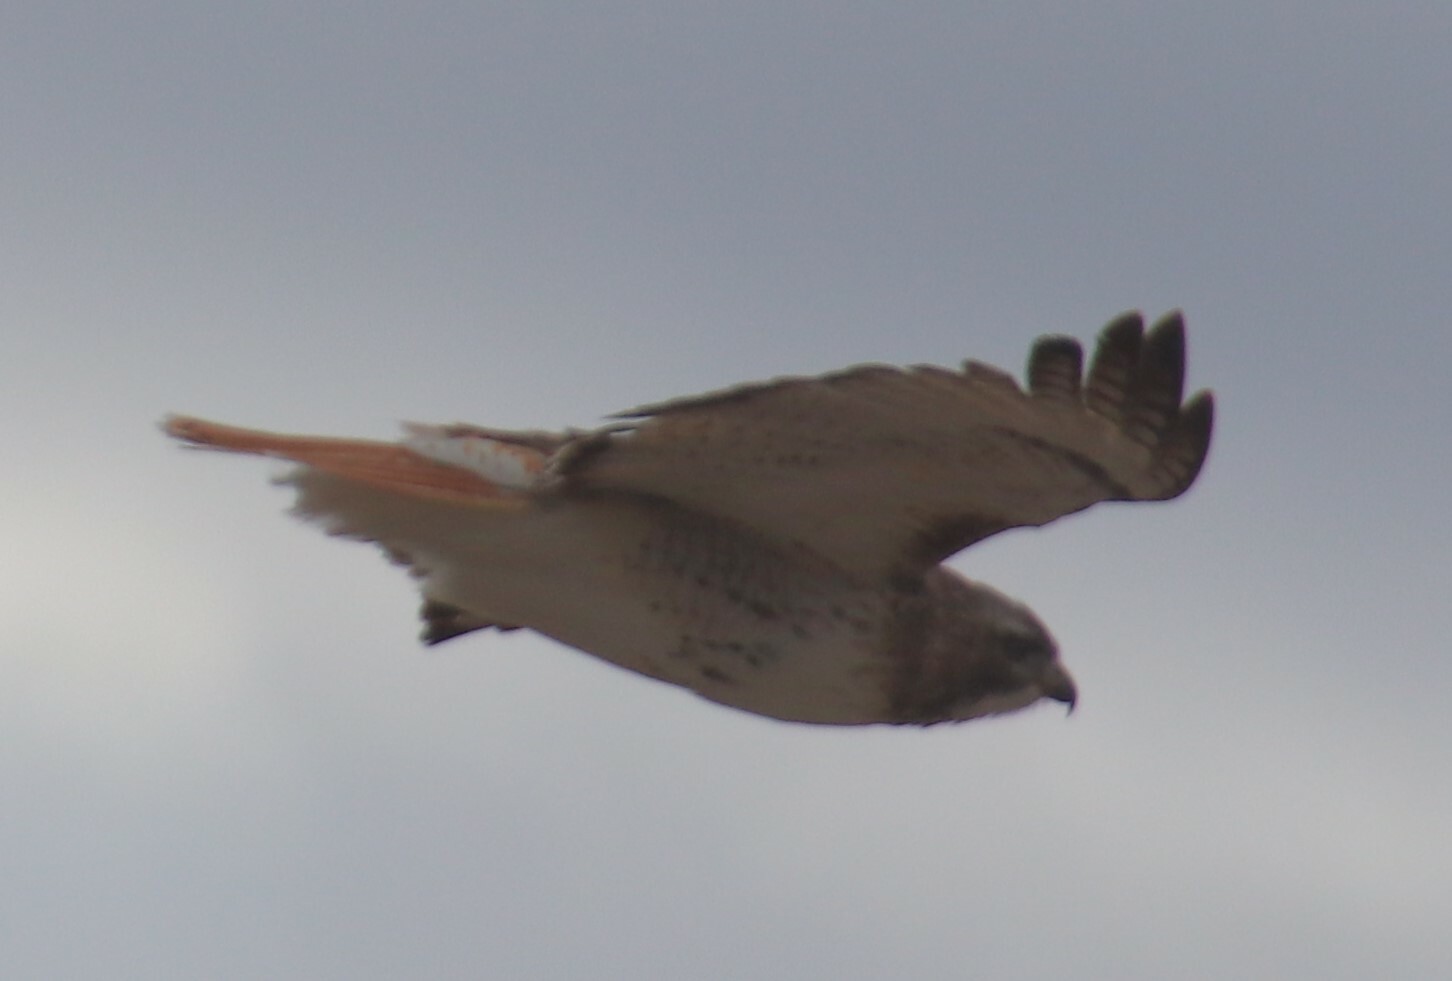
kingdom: Animalia
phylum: Chordata
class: Aves
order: Accipitriformes
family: Accipitridae
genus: Buteo
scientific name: Buteo jamaicensis
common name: Red-tailed hawk
